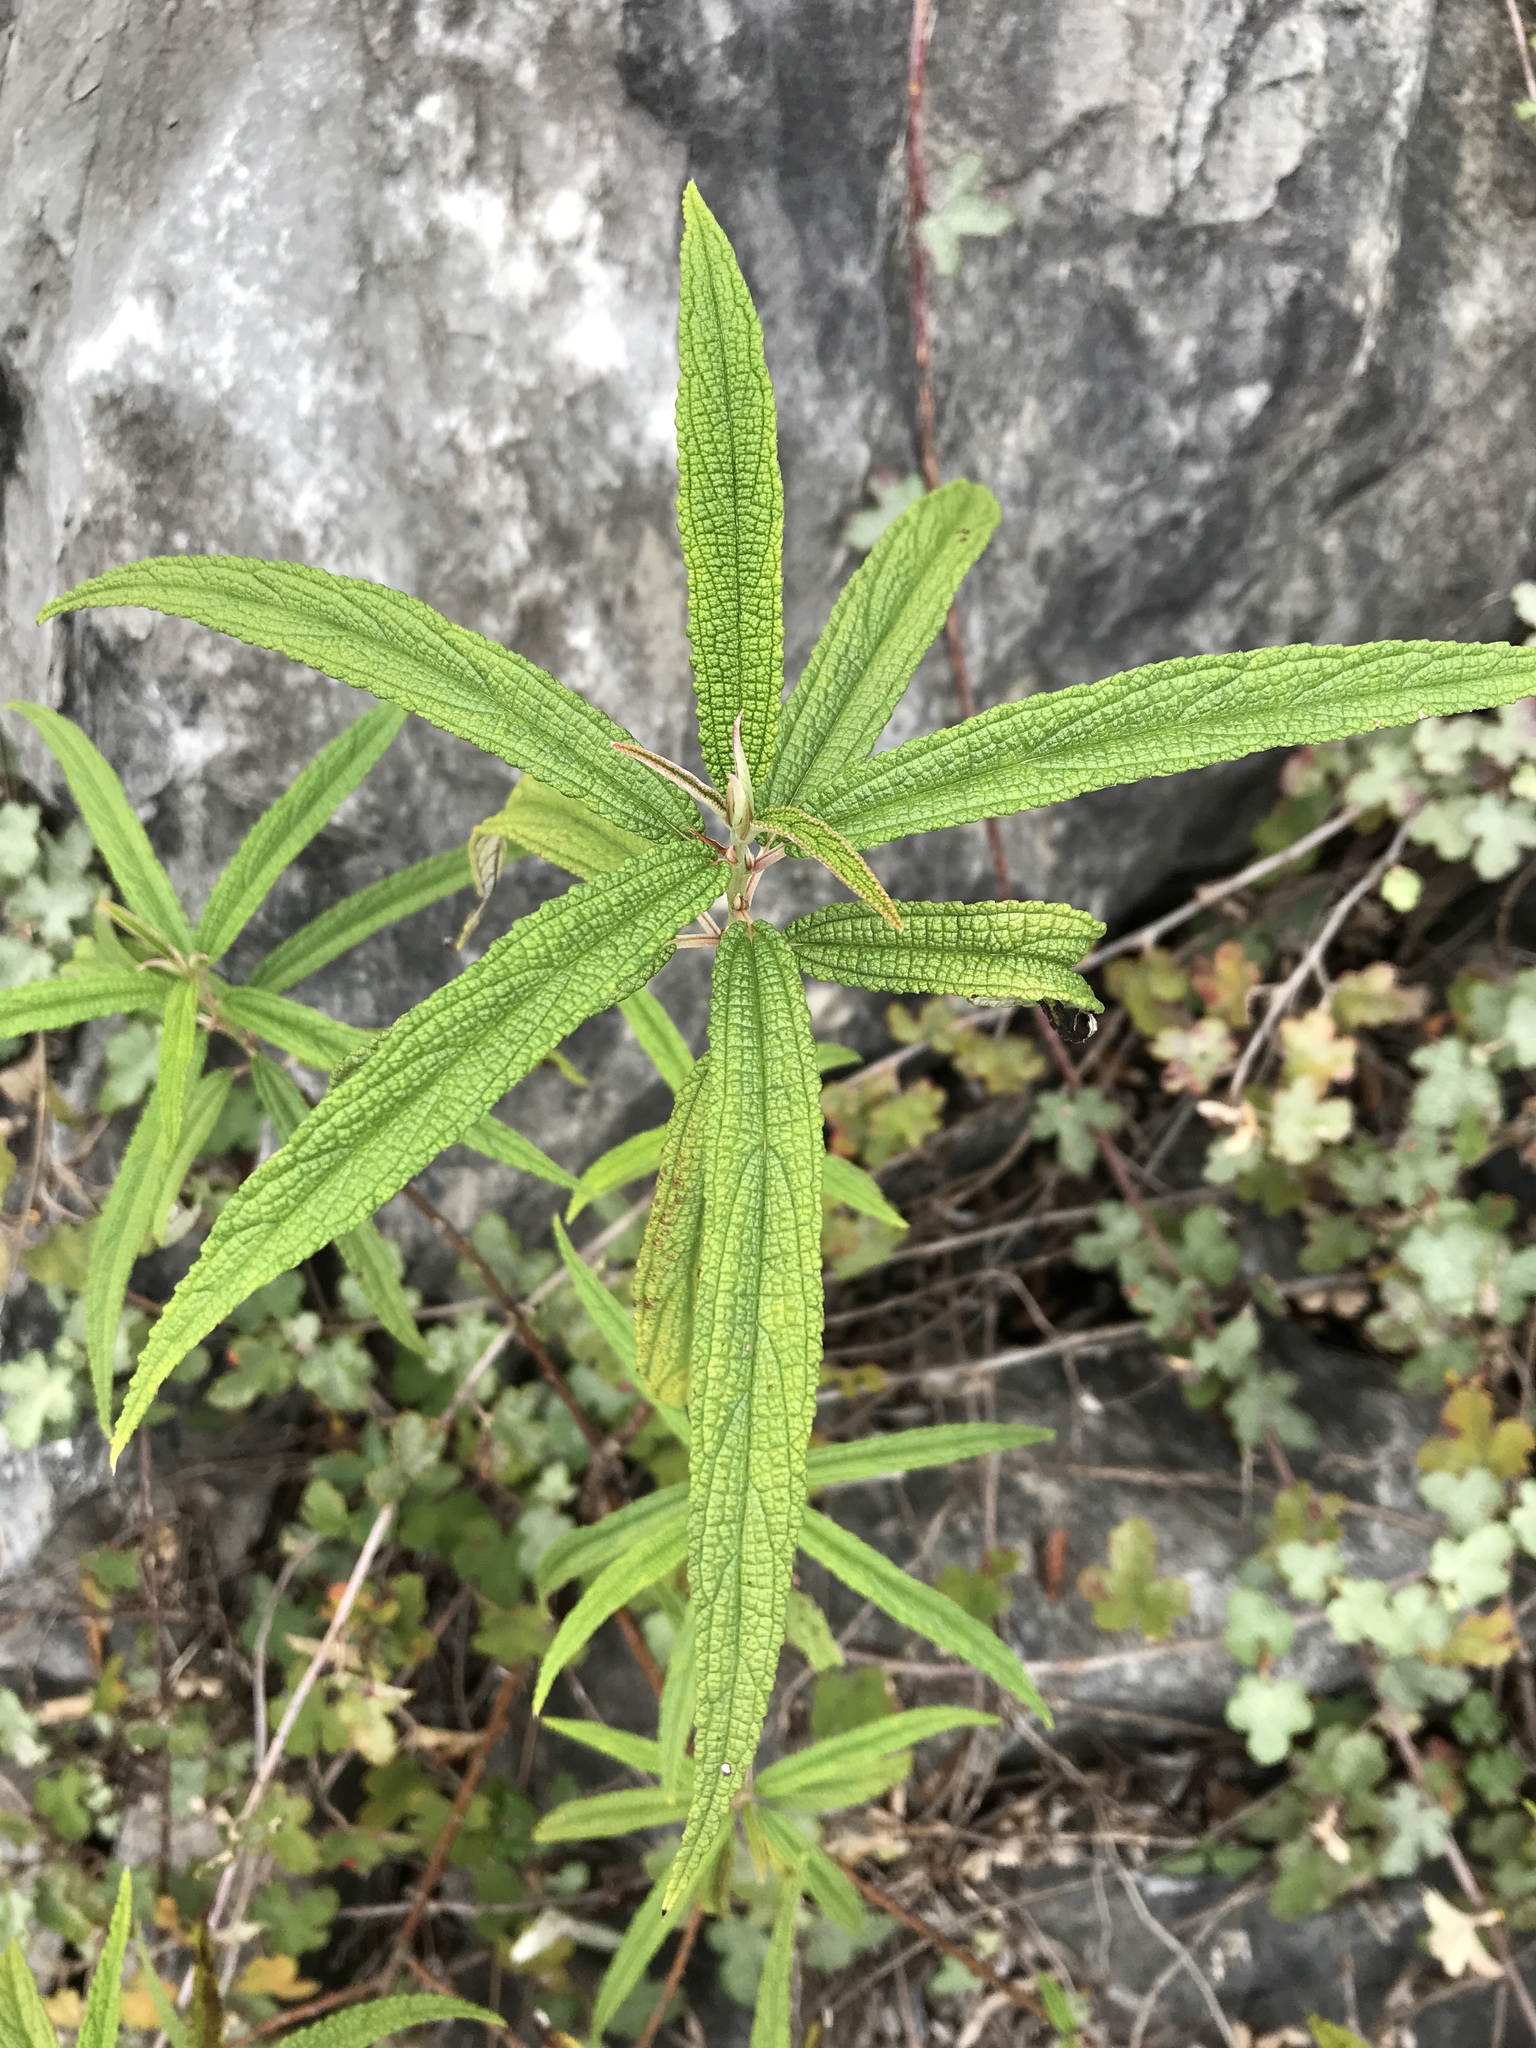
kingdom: Plantae
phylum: Tracheophyta
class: Magnoliopsida
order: Rosales
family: Urticaceae
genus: Debregeasia
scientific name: Debregeasia orientalis
